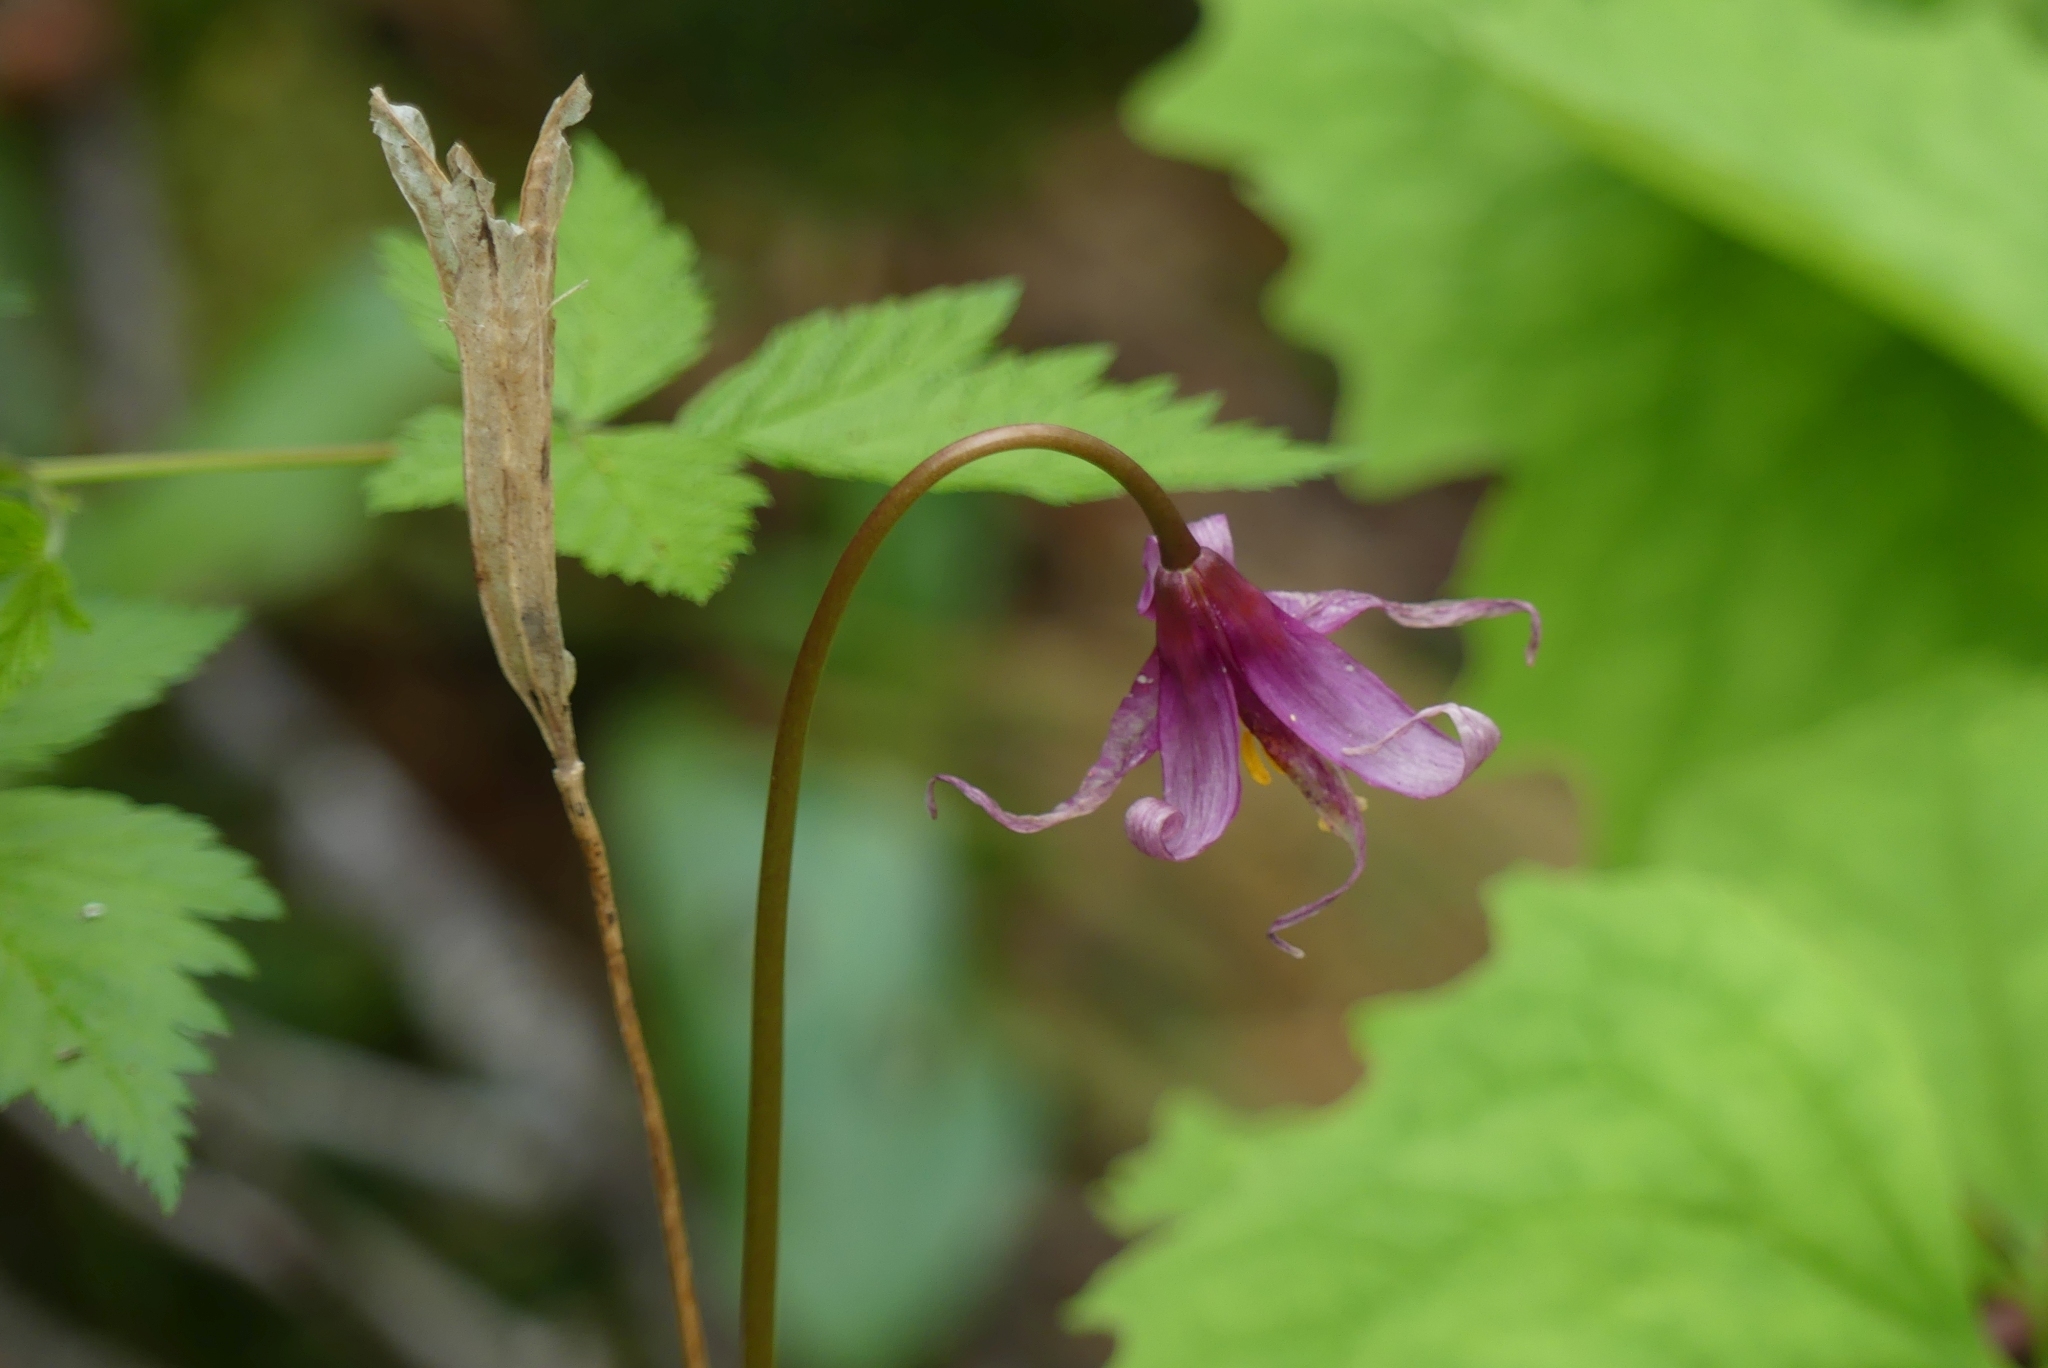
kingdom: Plantae
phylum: Tracheophyta
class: Liliopsida
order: Liliales
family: Liliaceae
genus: Erythronium
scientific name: Erythronium revolutum
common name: Pink fawn-lily
